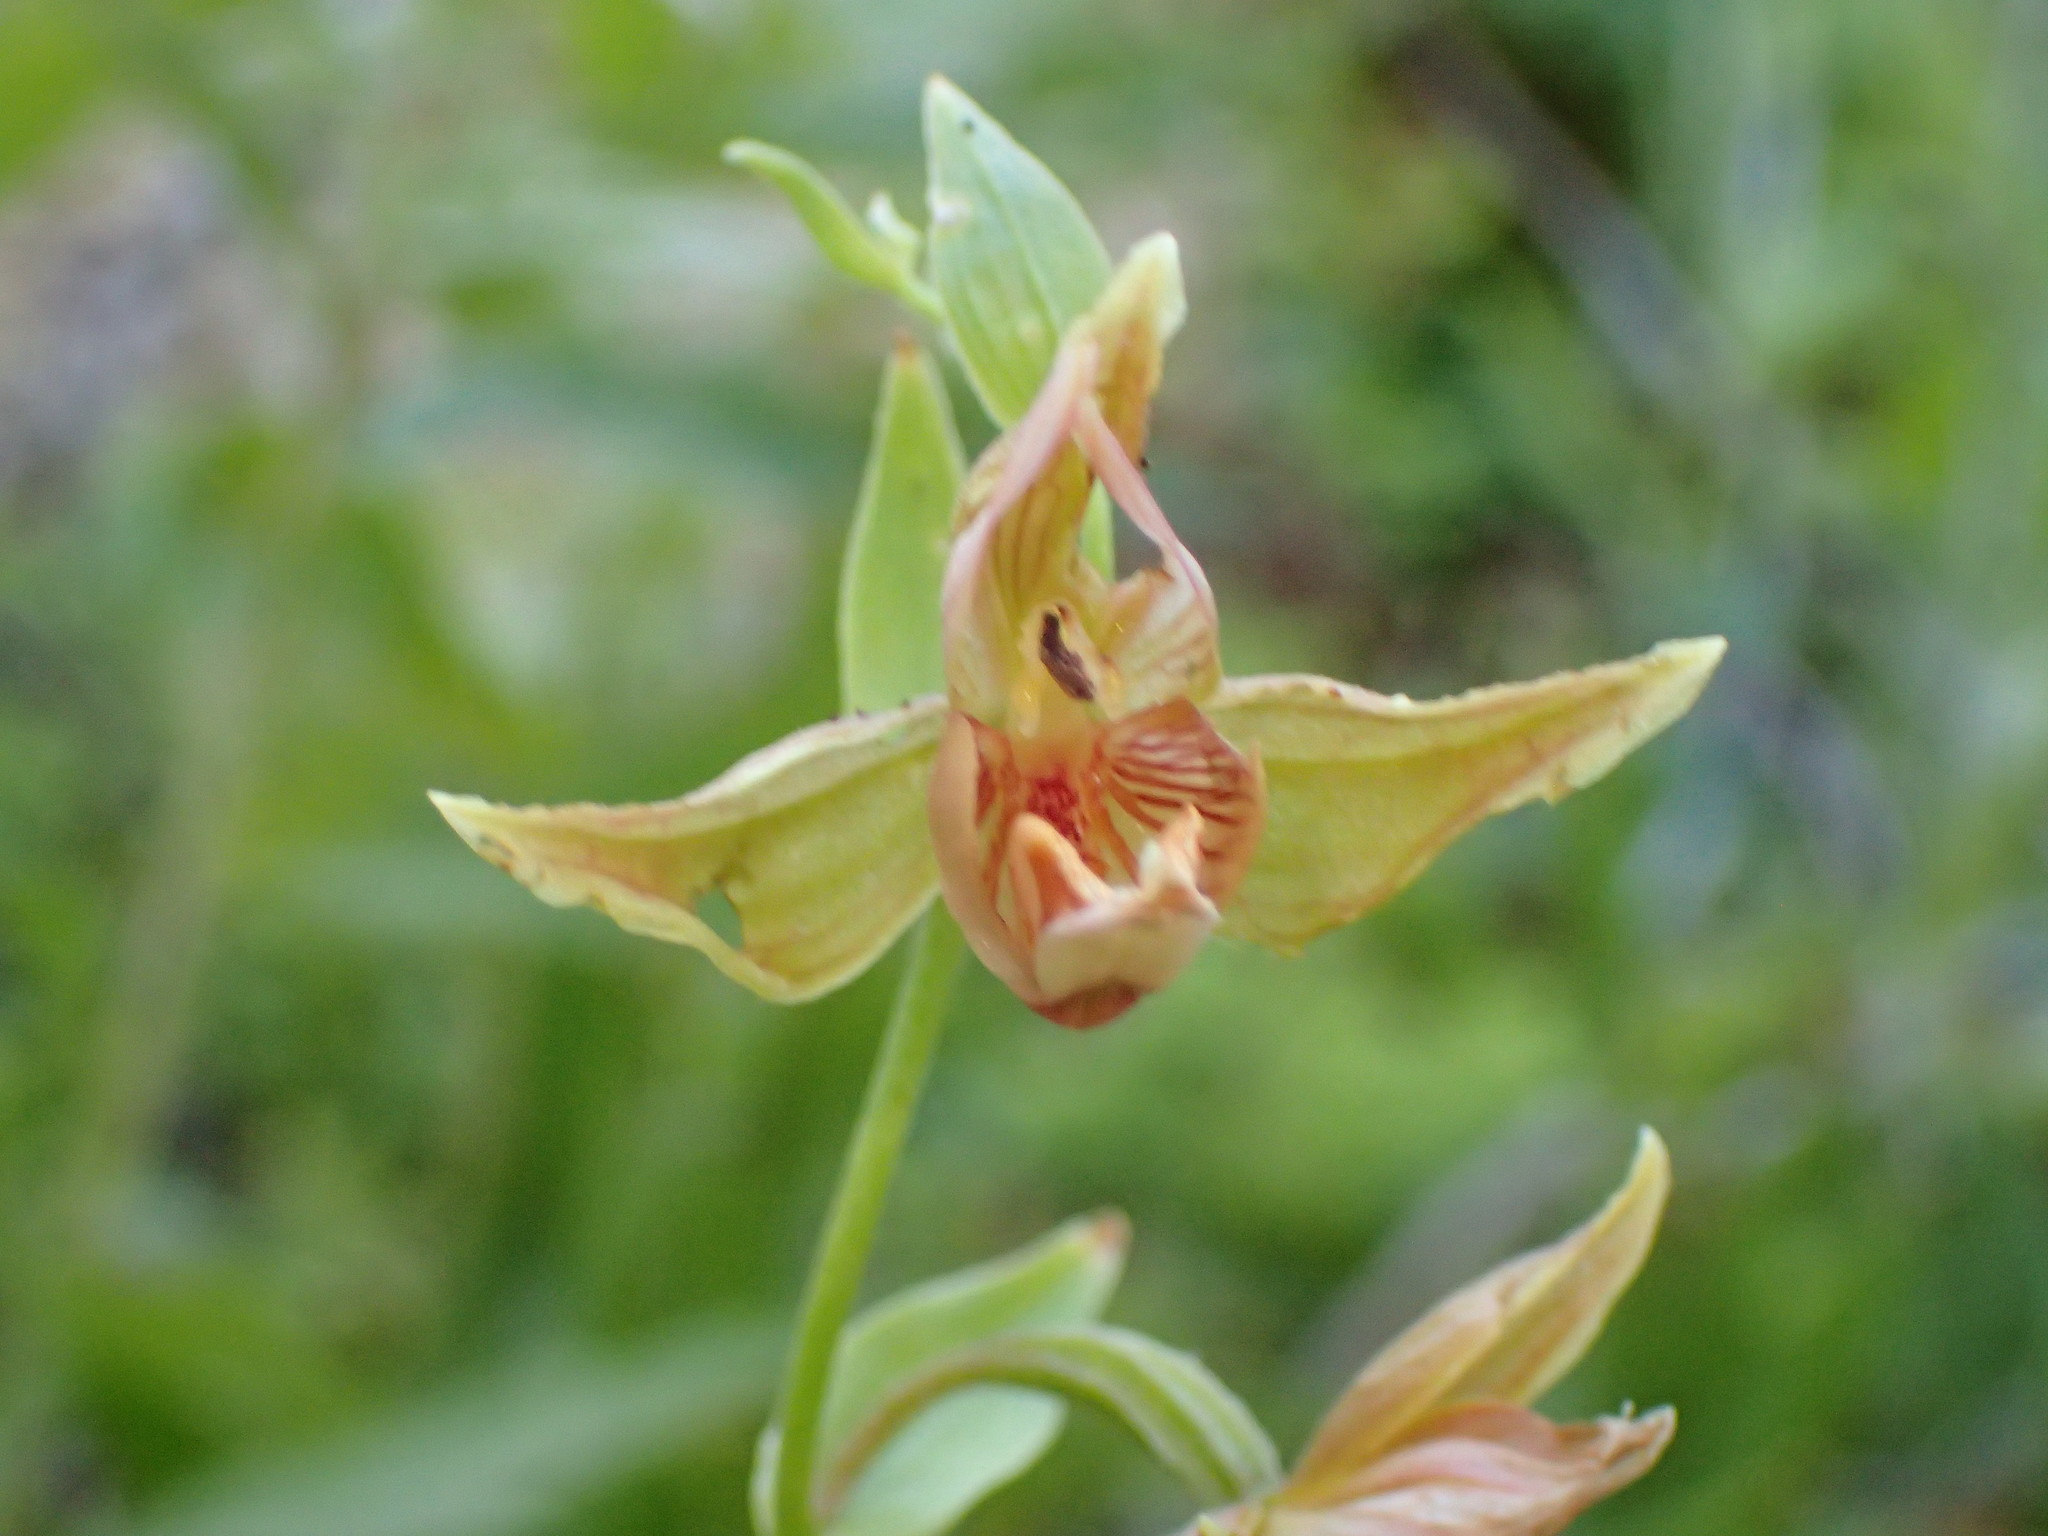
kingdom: Plantae
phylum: Tracheophyta
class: Liliopsida
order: Asparagales
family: Orchidaceae
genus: Epipactis
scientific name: Epipactis gigantea
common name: Chatterbox
